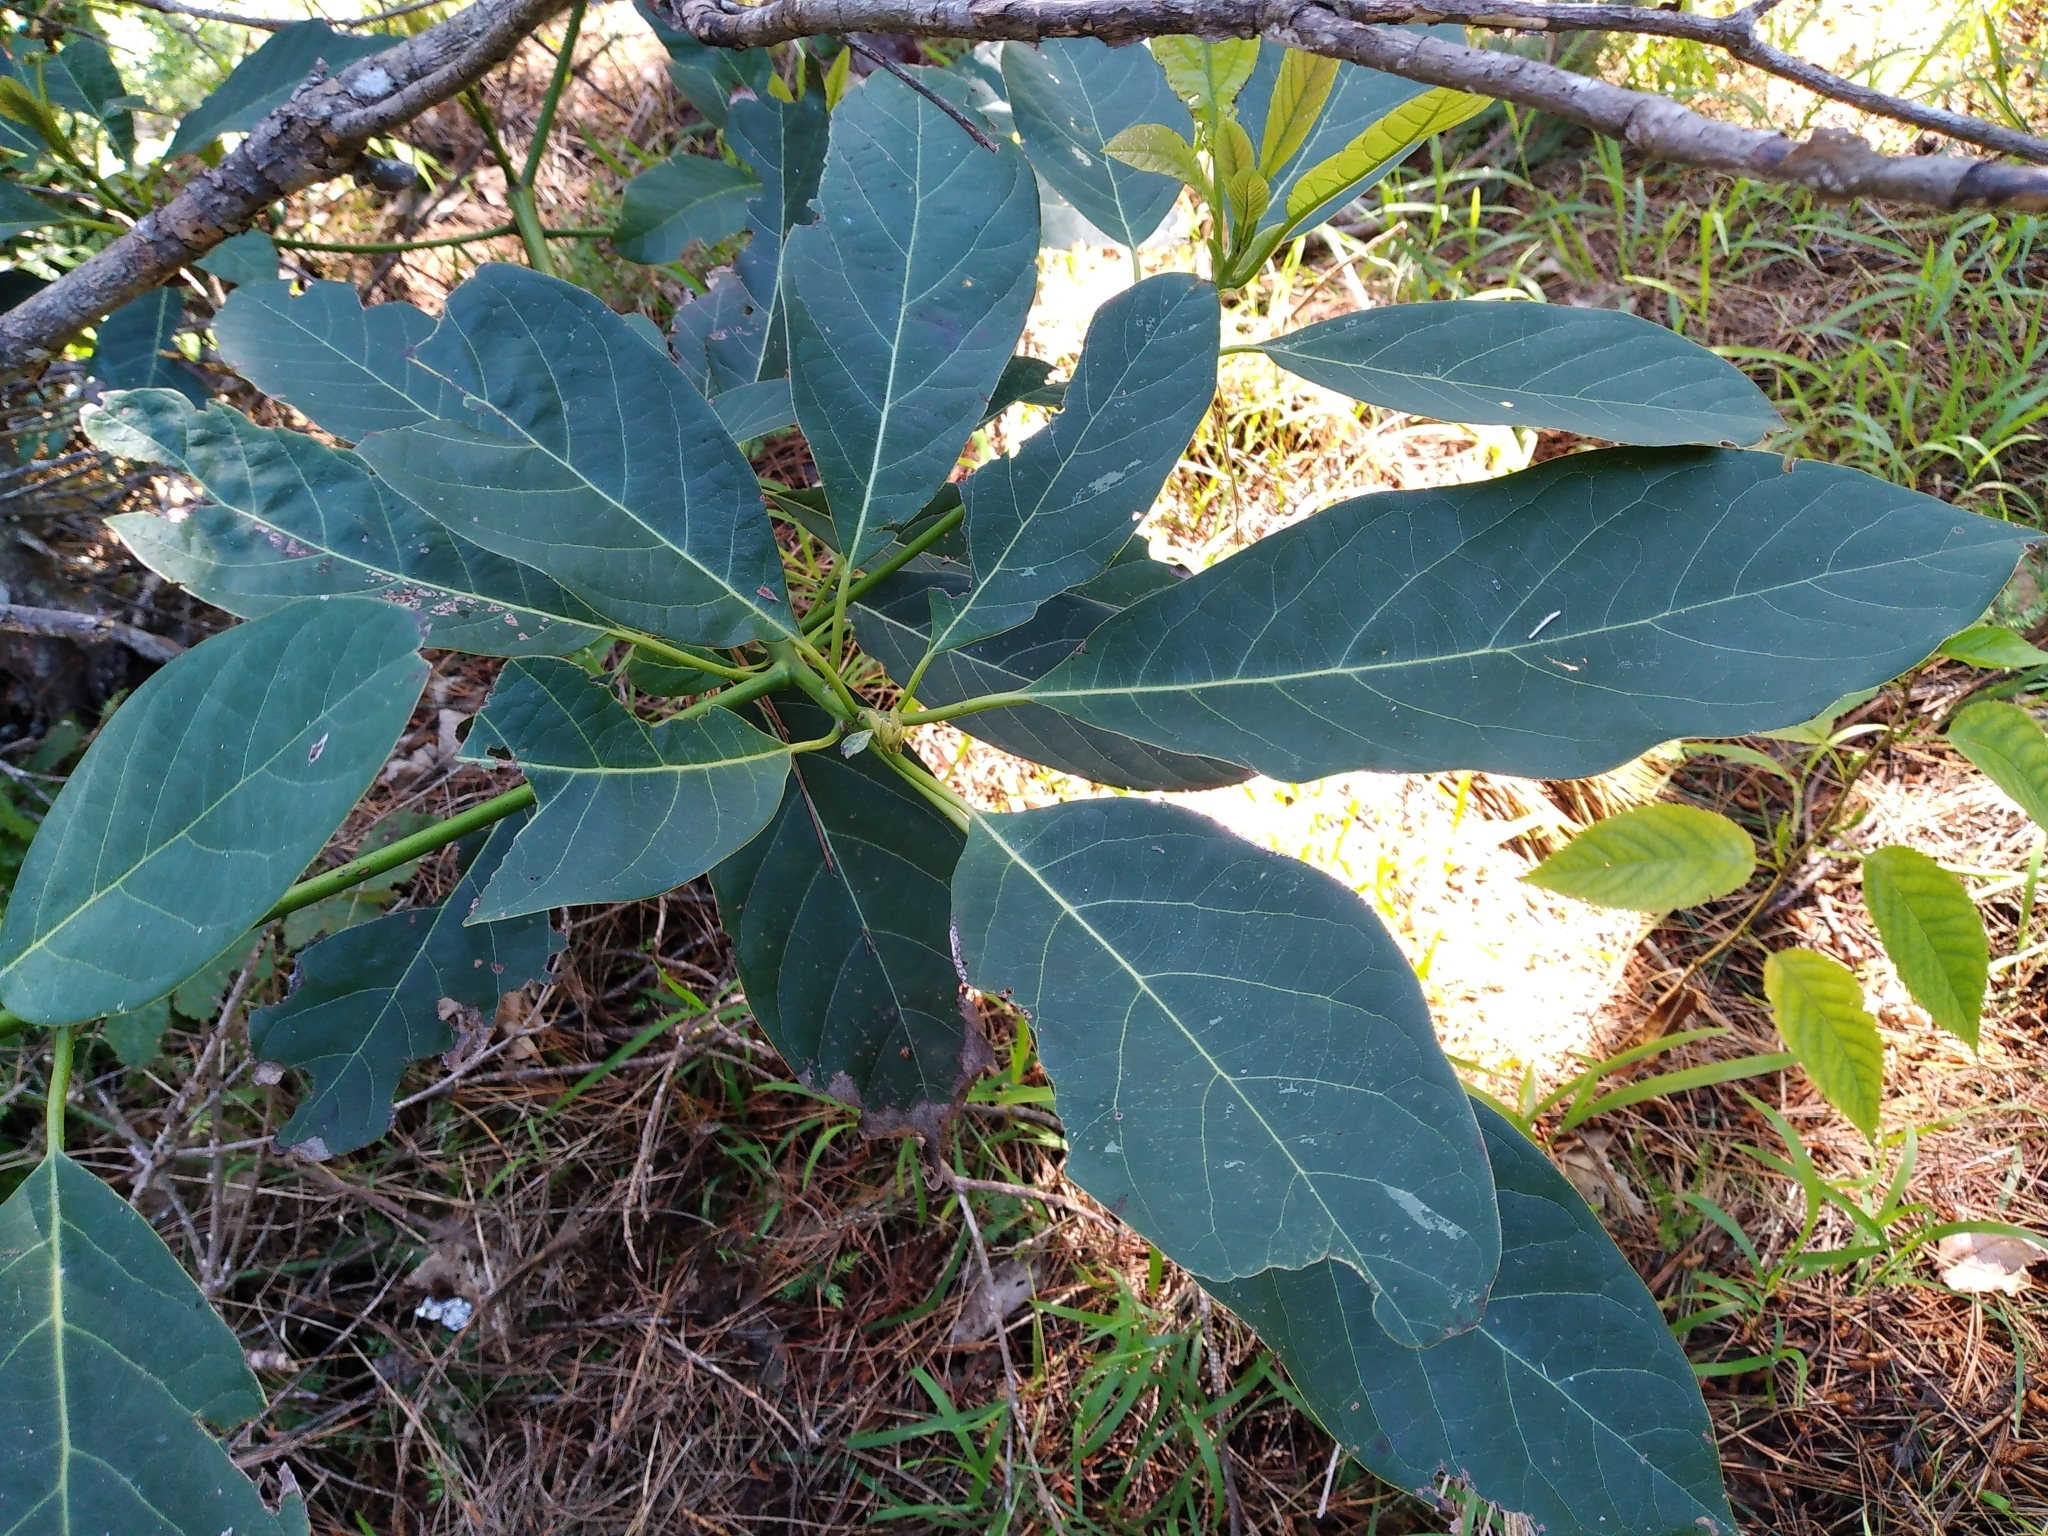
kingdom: Plantae
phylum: Tracheophyta
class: Magnoliopsida
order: Laurales
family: Lauraceae
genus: Persea
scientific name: Persea americana
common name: Avocado
